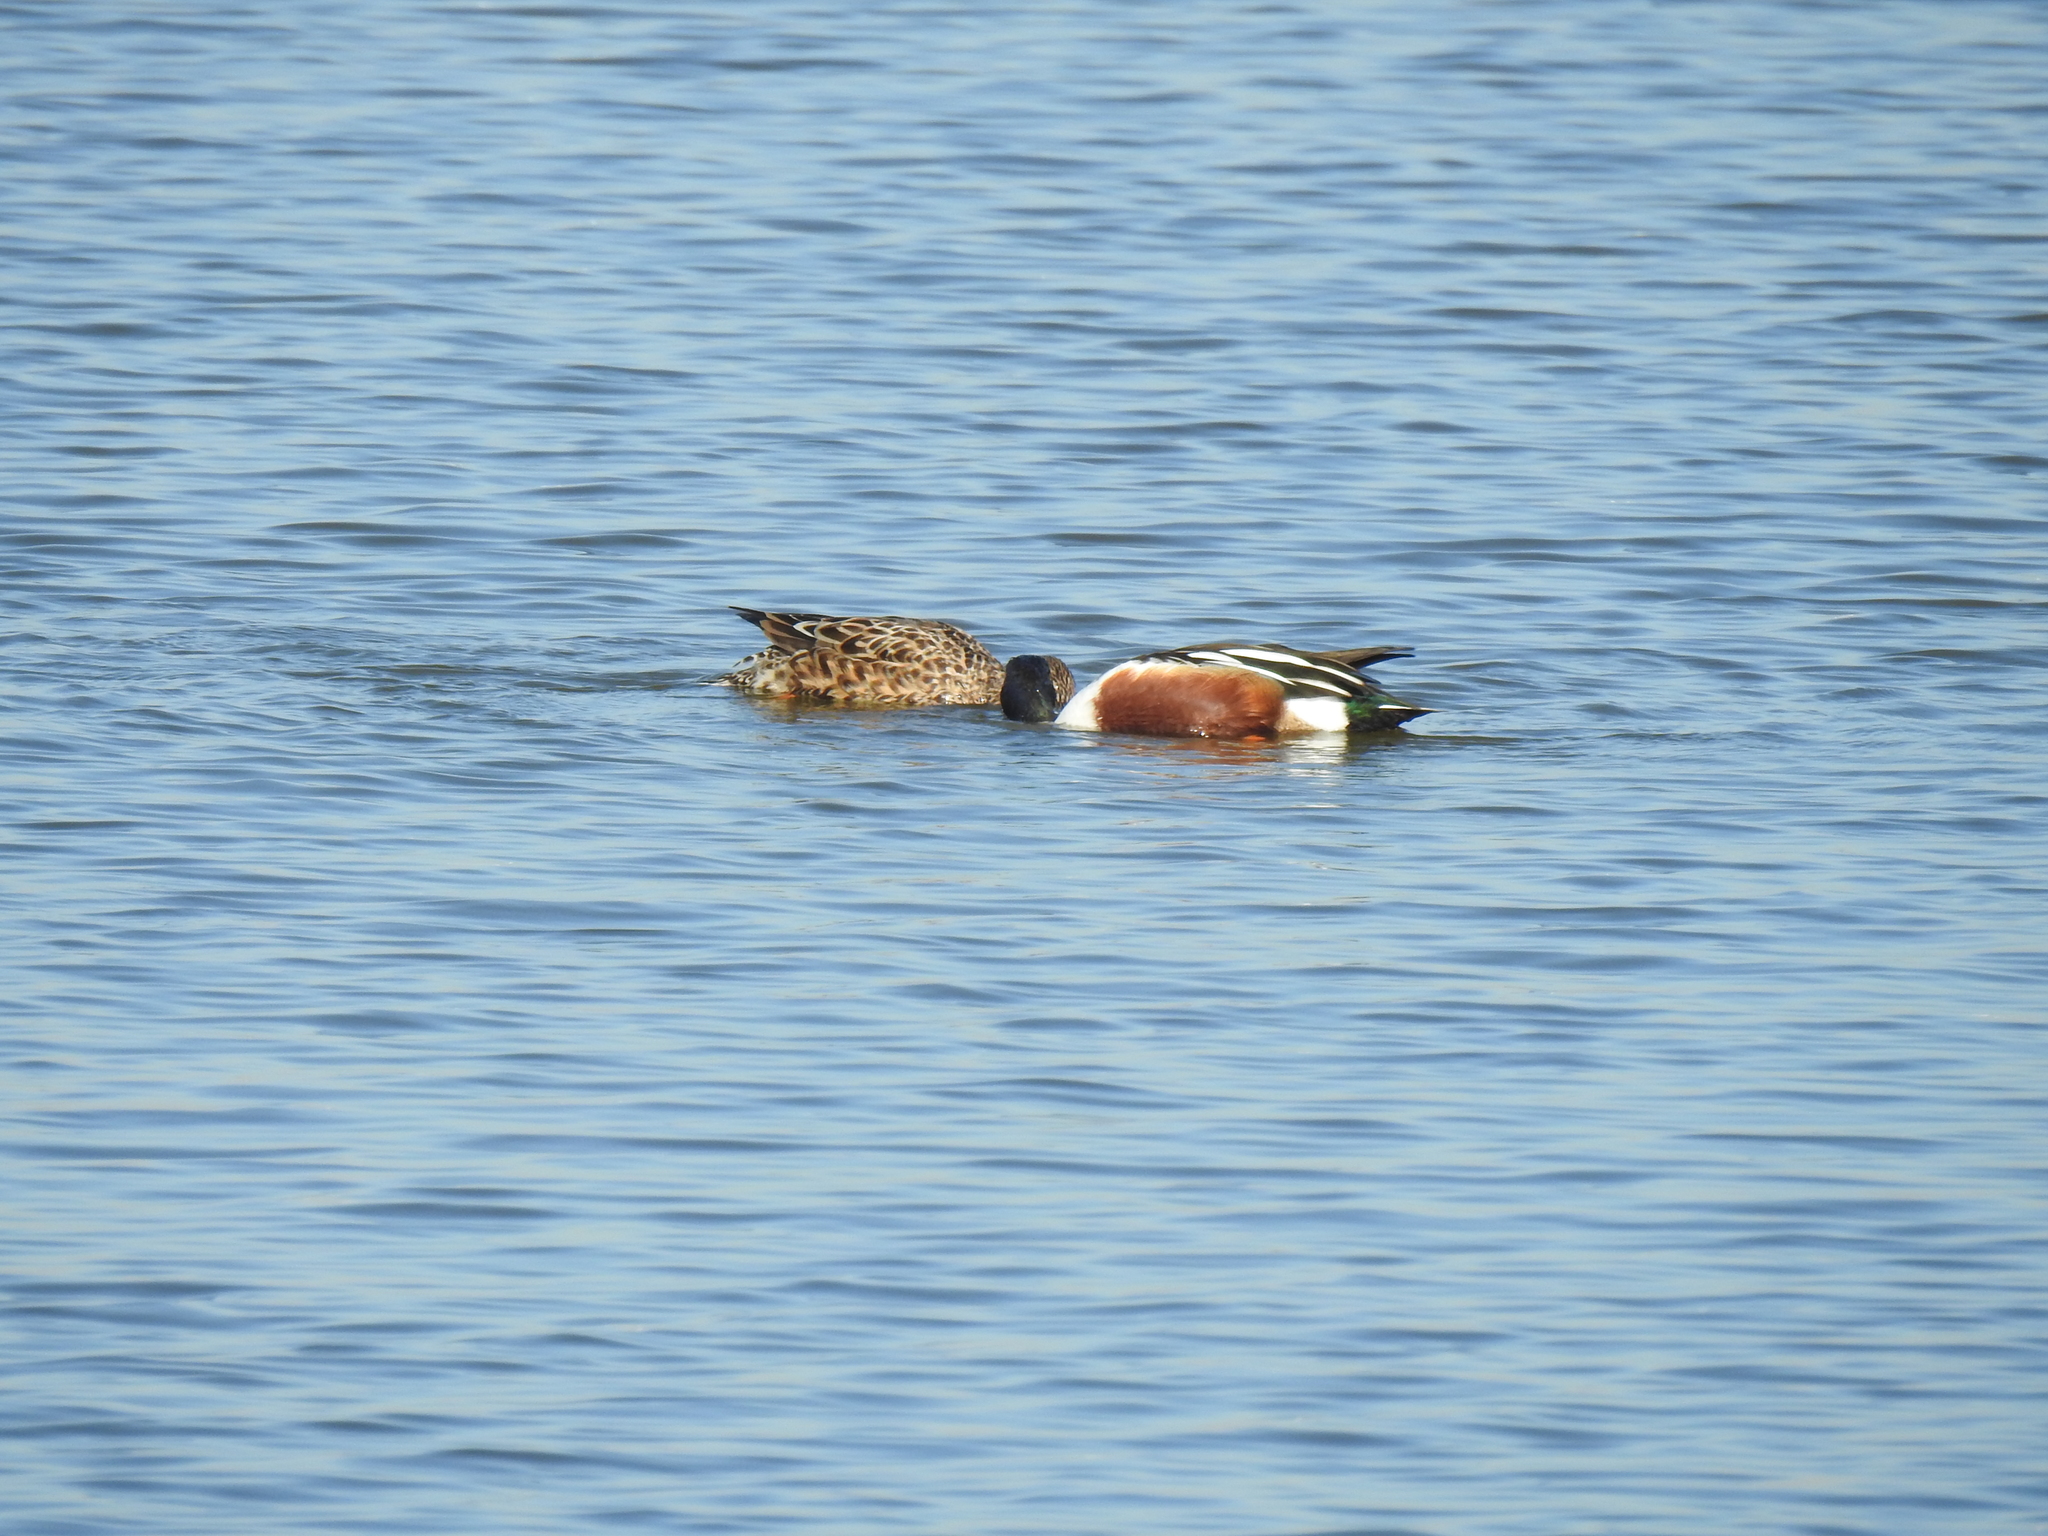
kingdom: Animalia
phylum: Chordata
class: Aves
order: Anseriformes
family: Anatidae
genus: Spatula
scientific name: Spatula clypeata
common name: Northern shoveler
